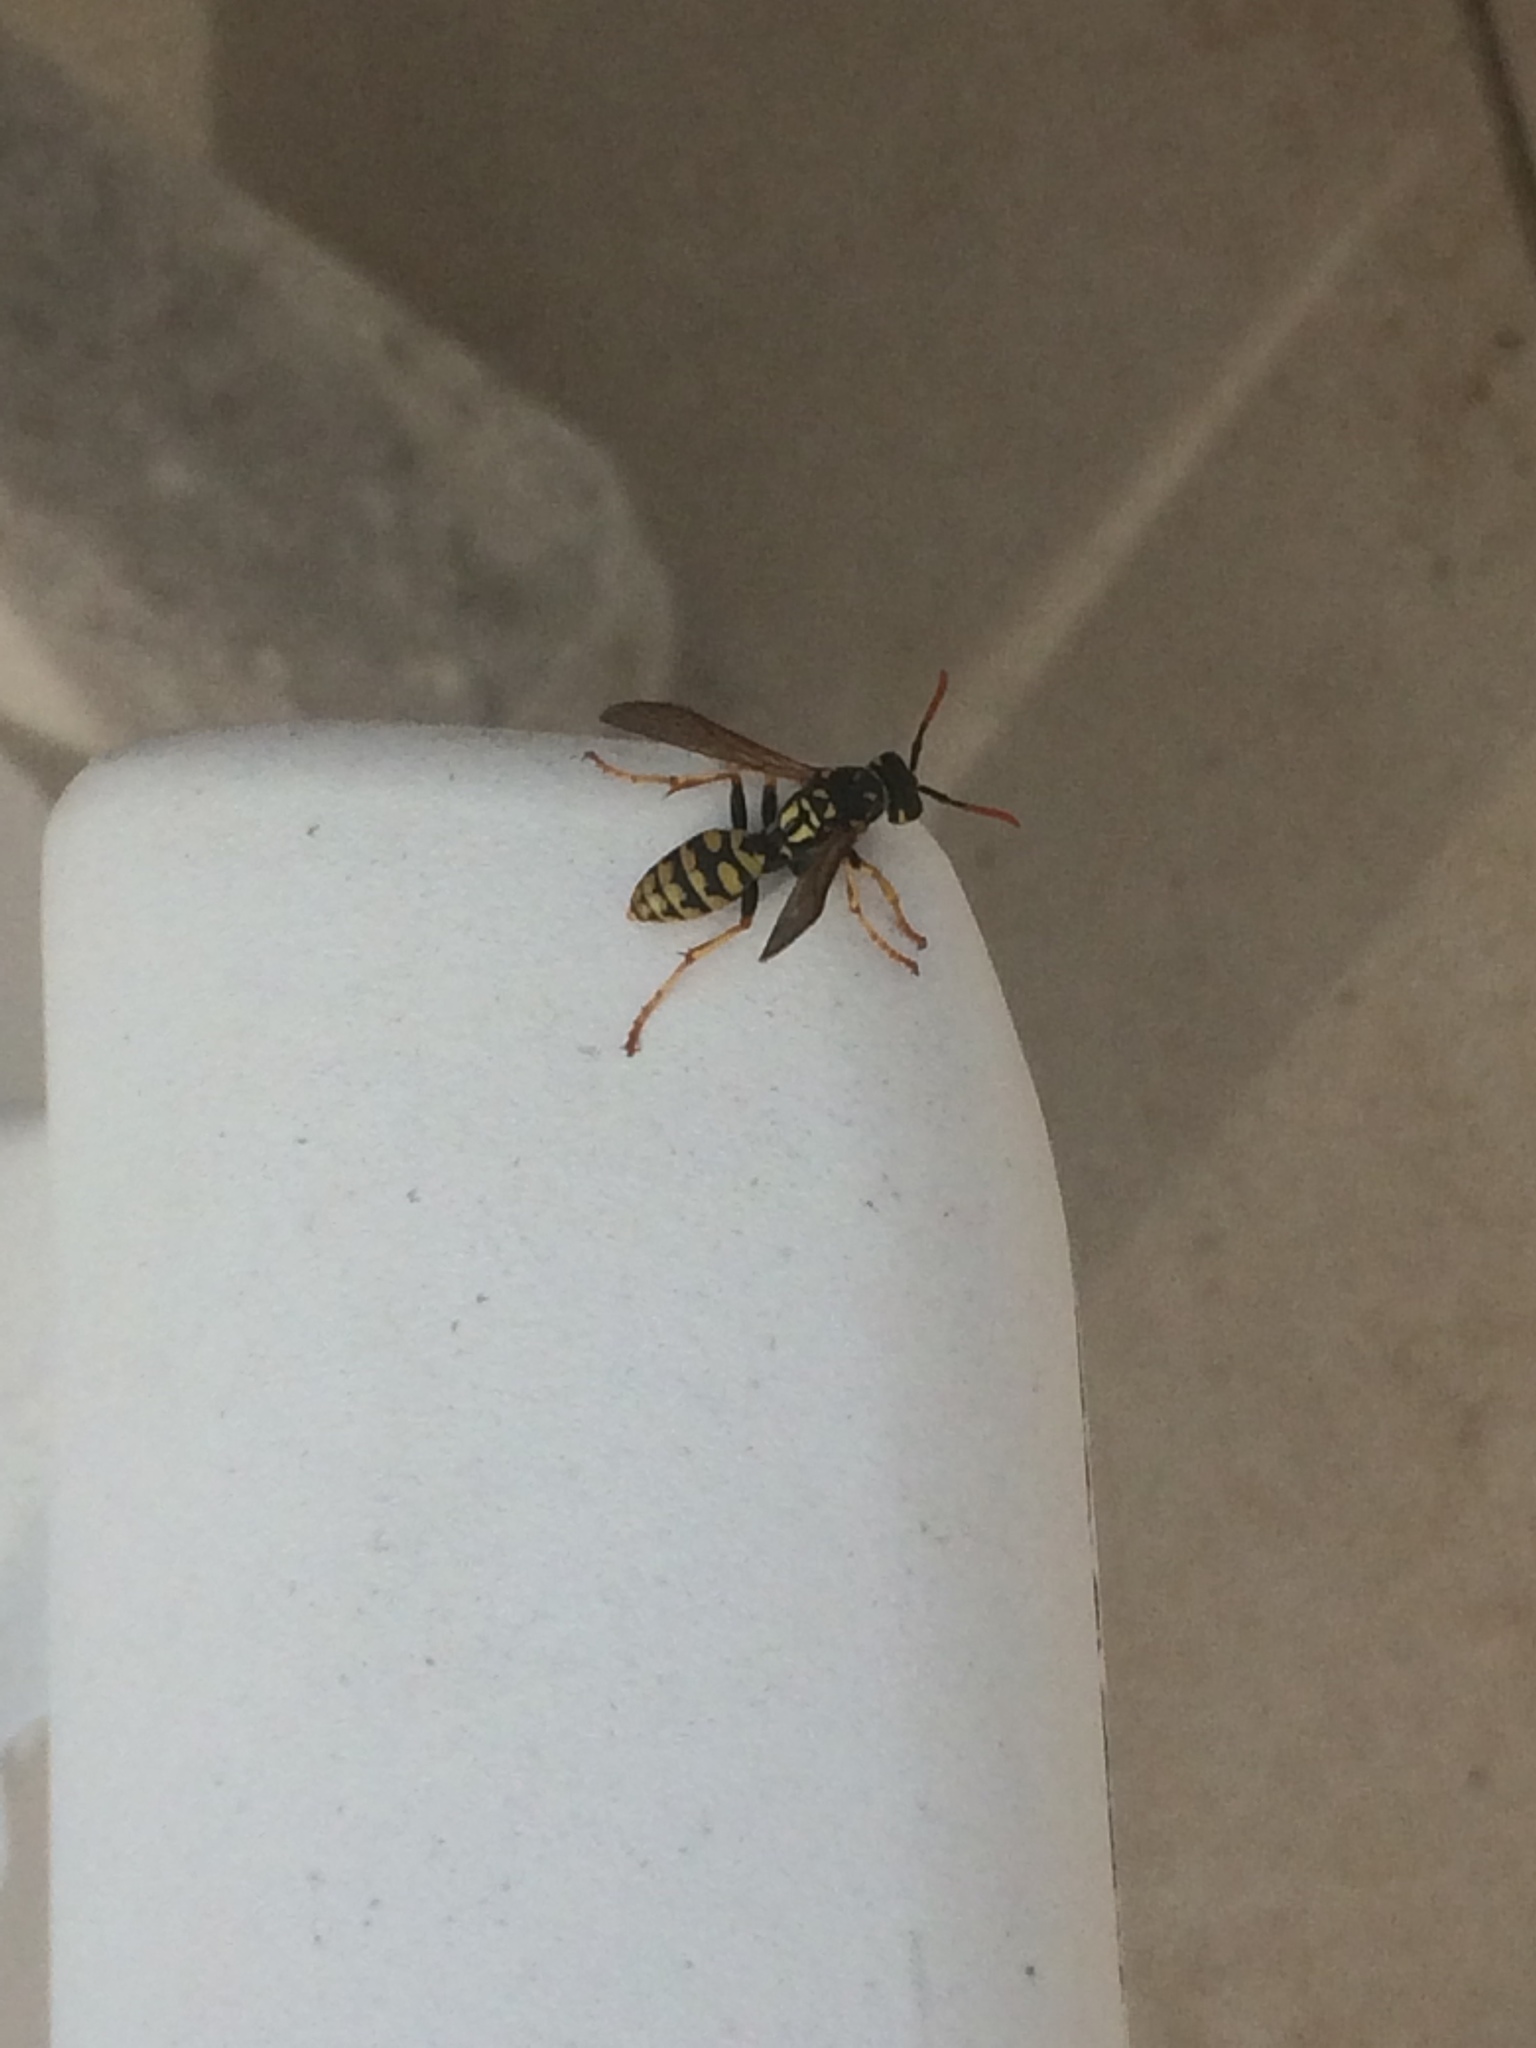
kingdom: Animalia
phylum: Arthropoda
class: Insecta
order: Hymenoptera
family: Eumenidae
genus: Polistes
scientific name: Polistes dominula
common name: Paper wasp
